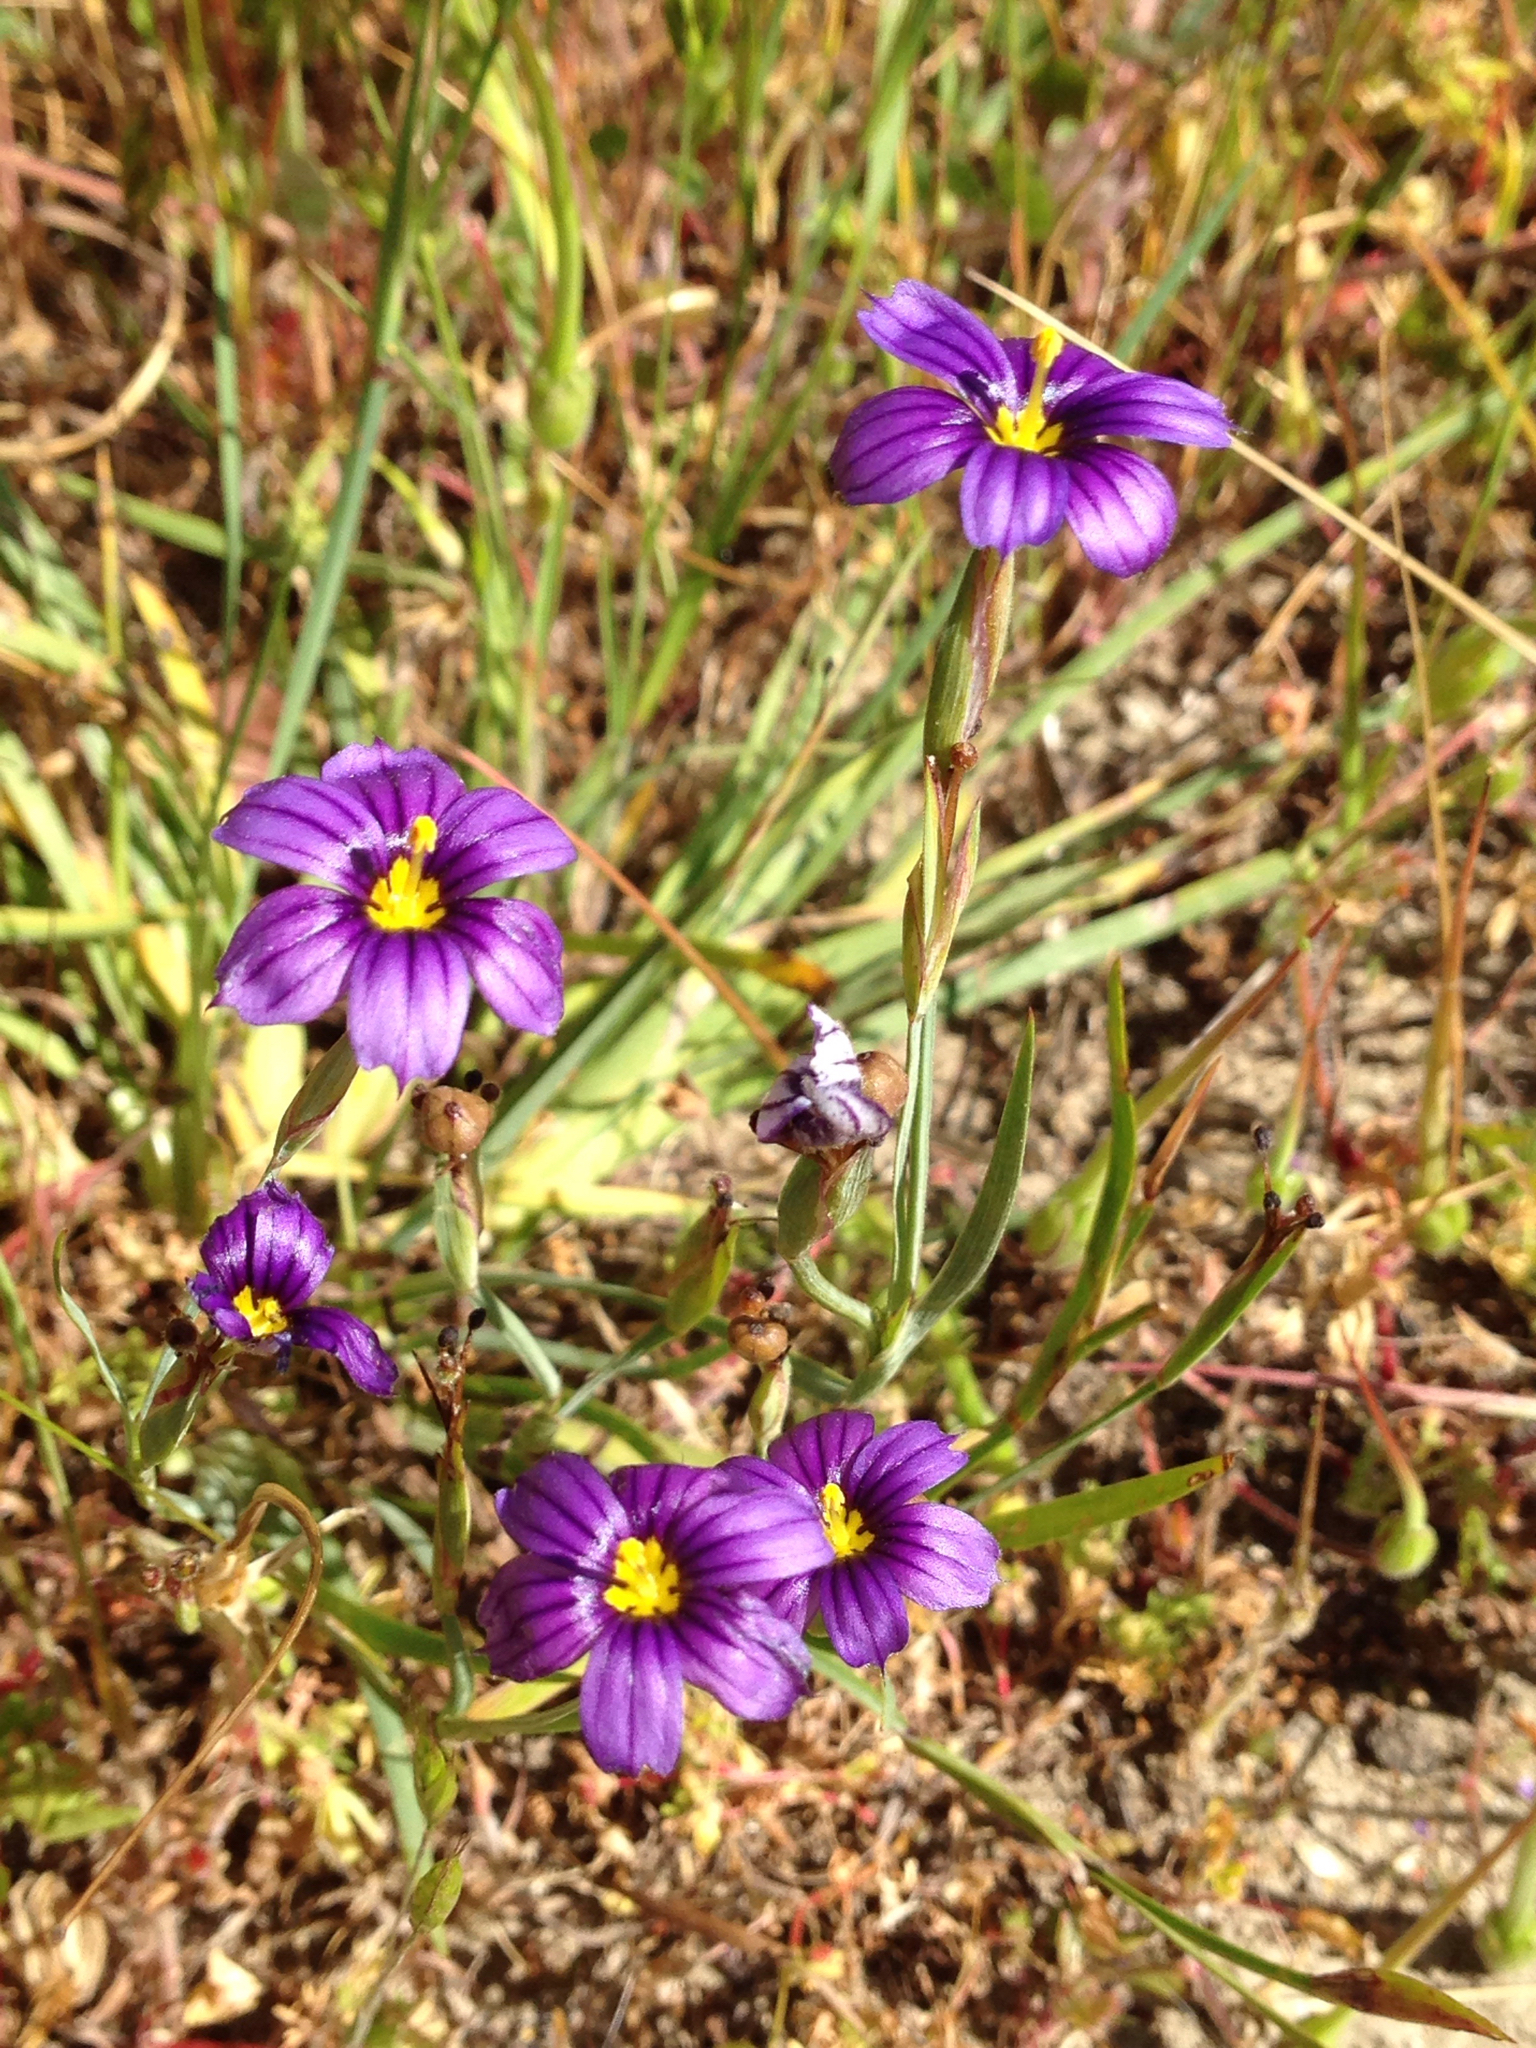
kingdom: Plantae
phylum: Tracheophyta
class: Liliopsida
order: Asparagales
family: Iridaceae
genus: Sisyrinchium
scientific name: Sisyrinchium bellum
